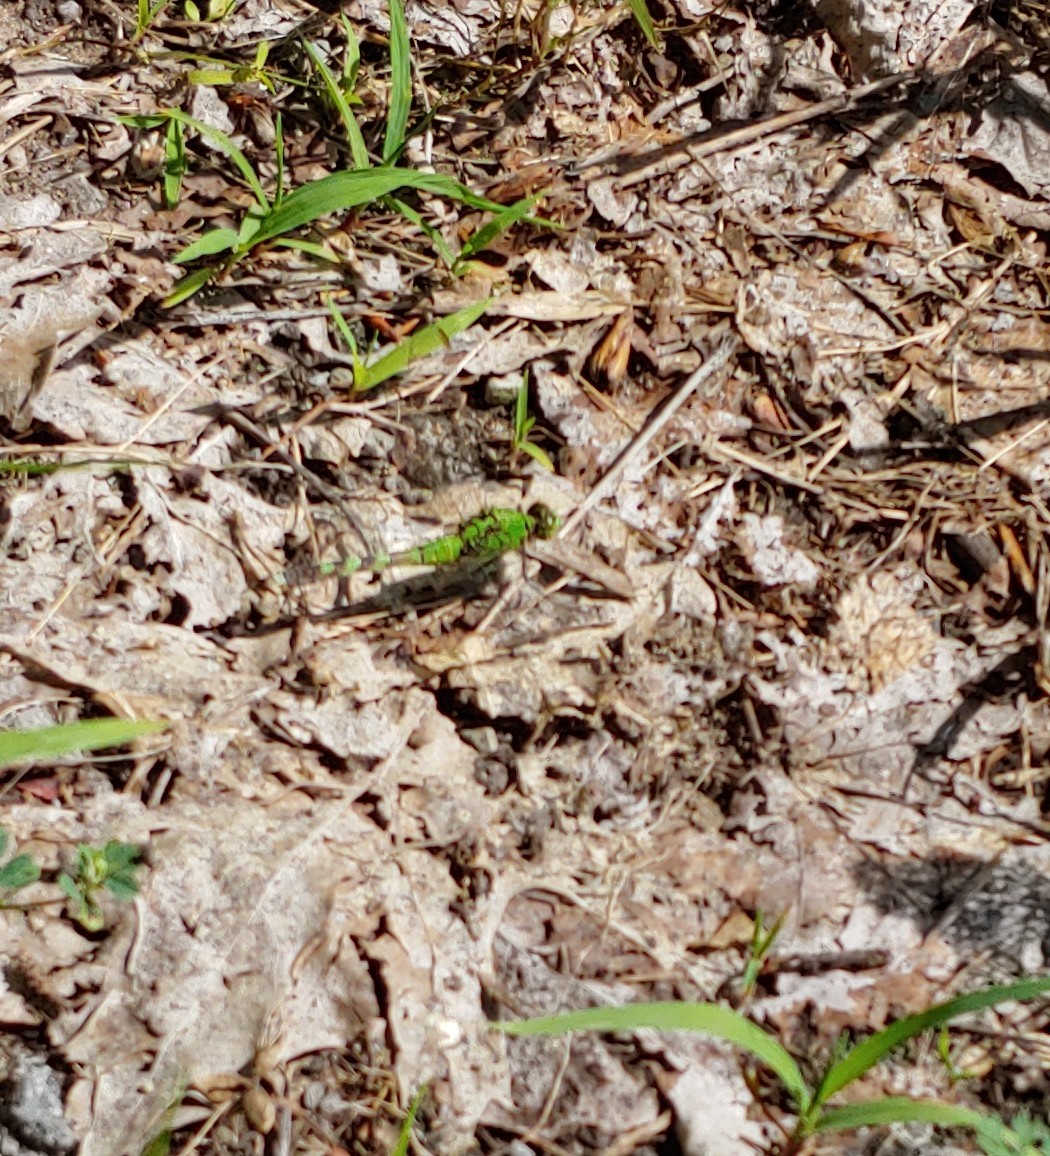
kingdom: Animalia
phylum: Arthropoda
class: Insecta
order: Odonata
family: Libellulidae
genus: Erythemis
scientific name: Erythemis simplicicollis
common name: Eastern pondhawk
